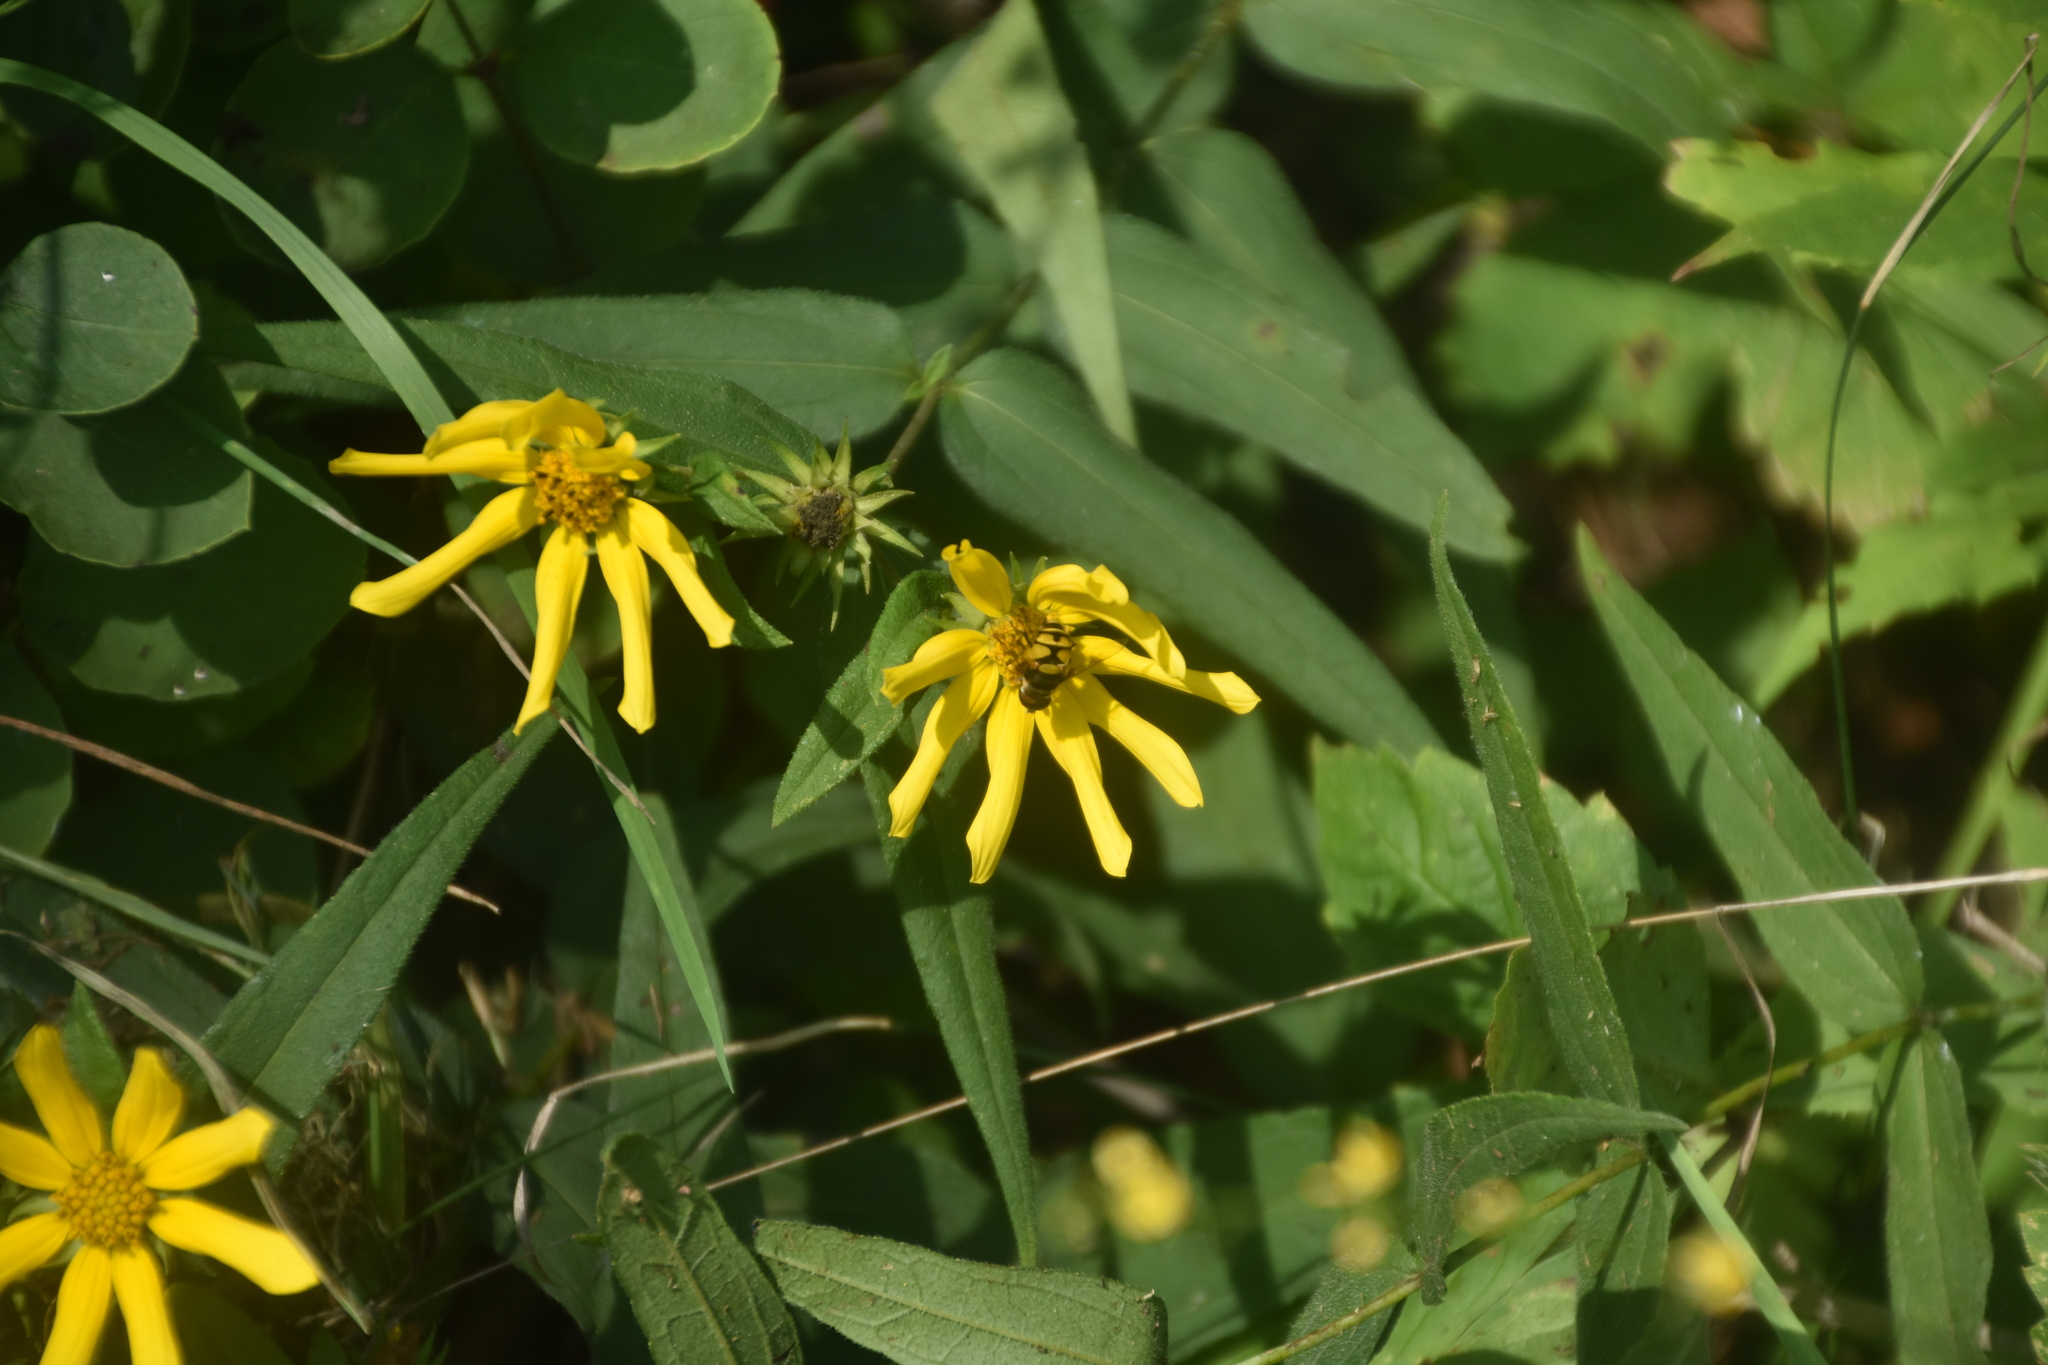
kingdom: Animalia
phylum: Arthropoda
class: Insecta
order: Diptera
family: Syrphidae
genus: Eristalis
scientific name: Eristalis transversa
